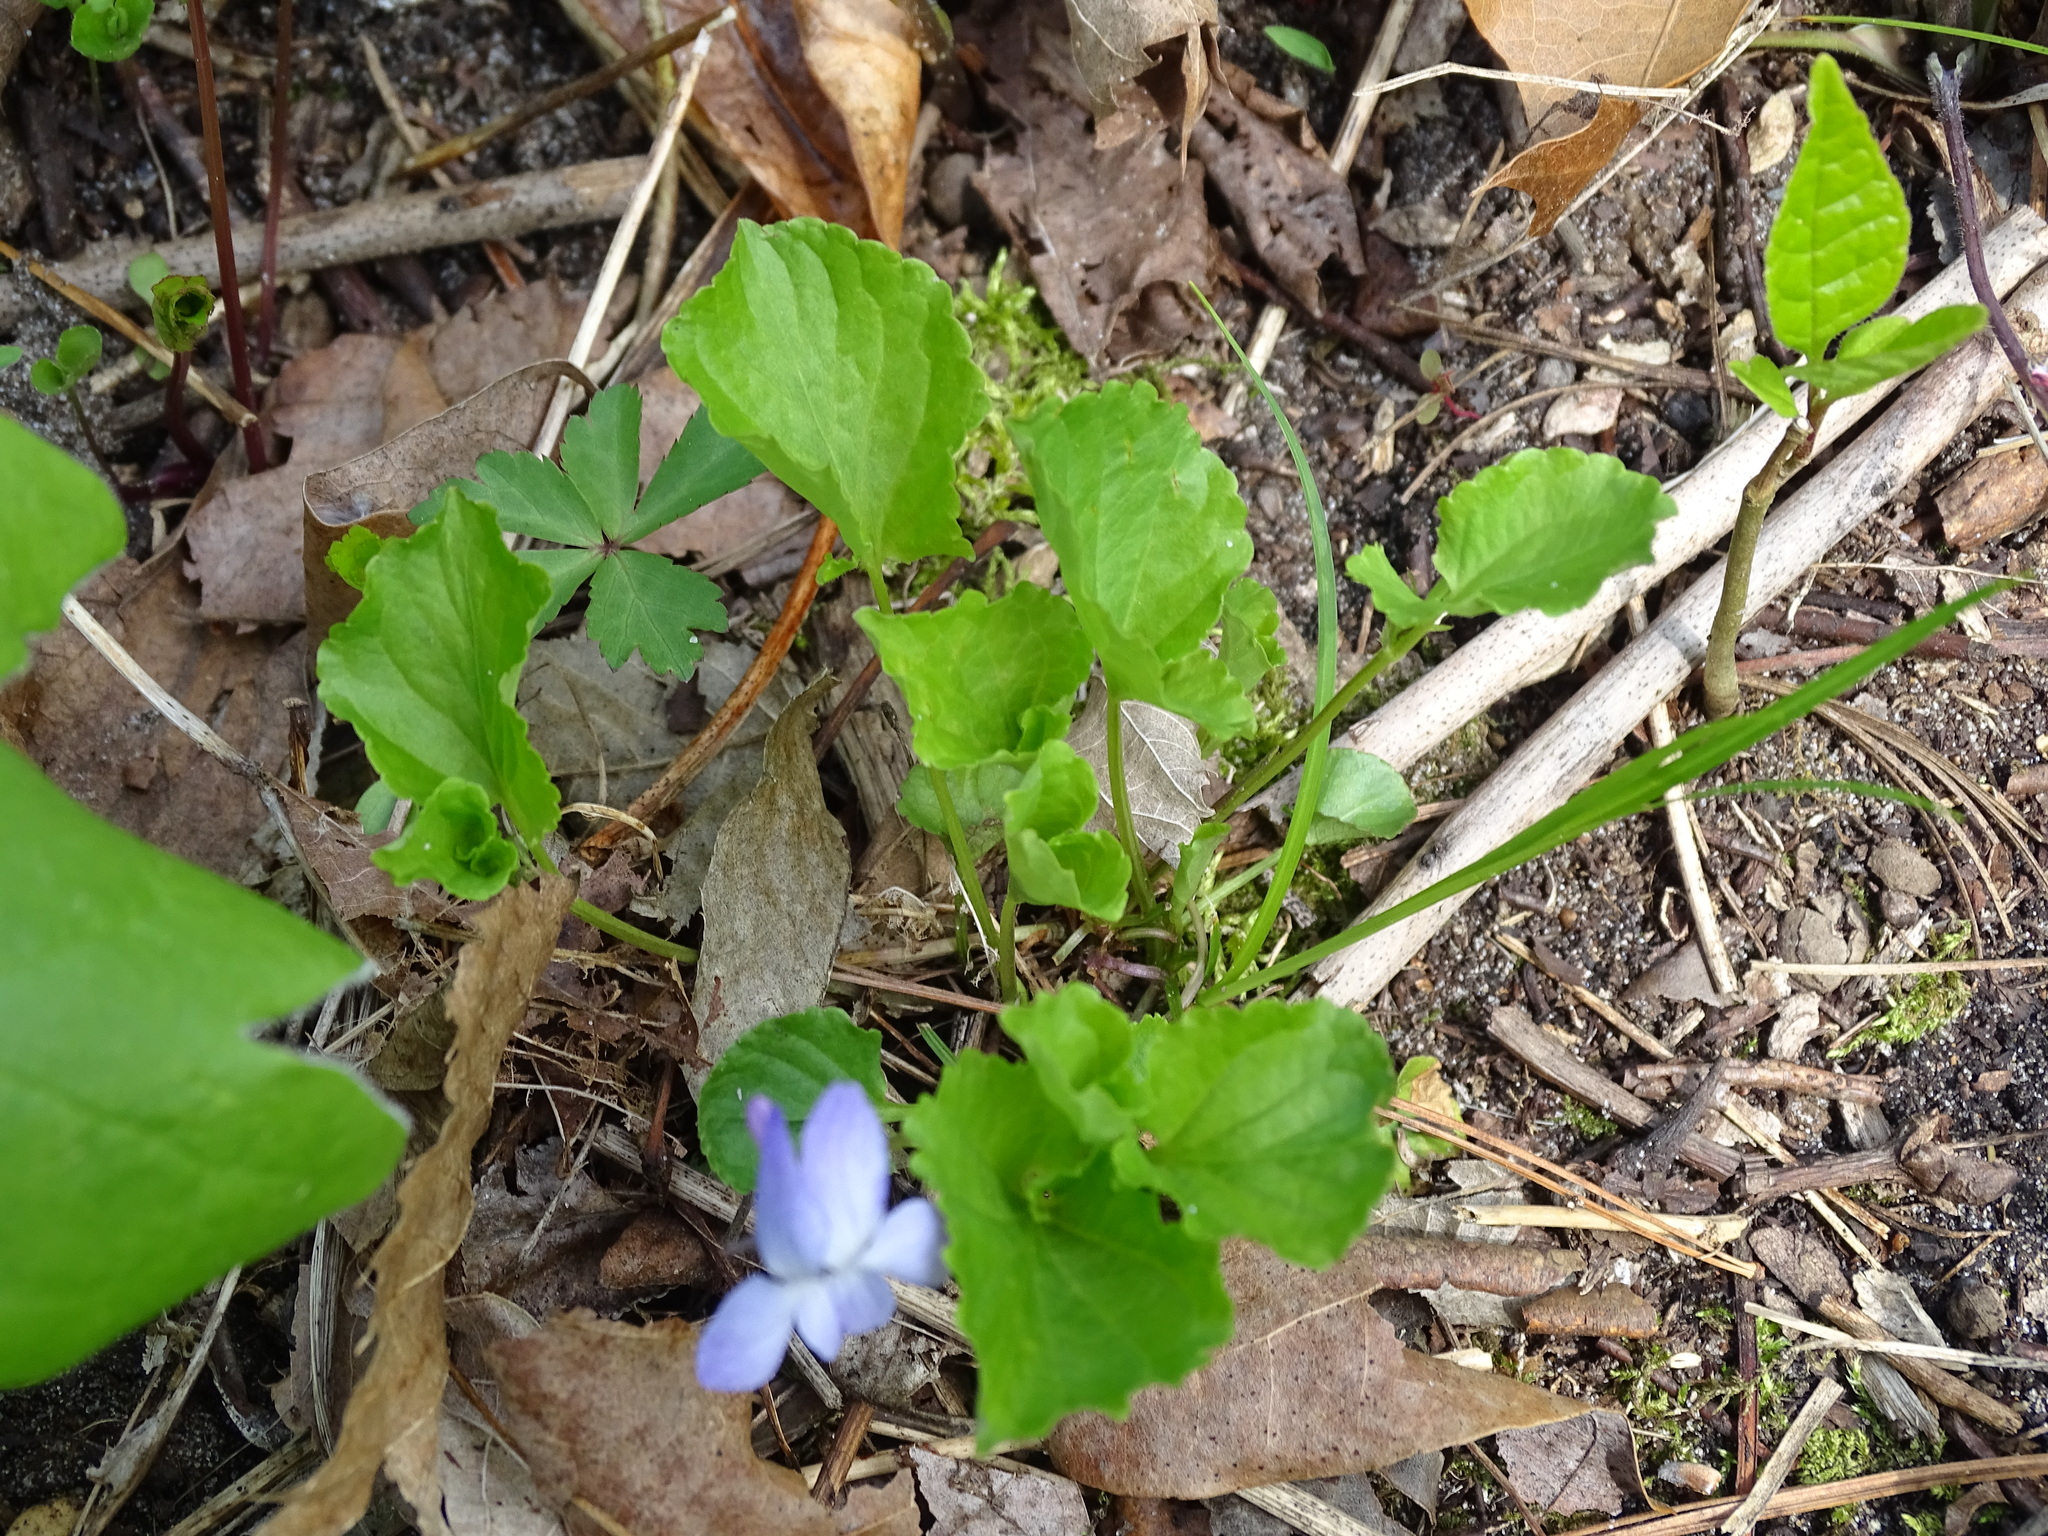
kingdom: Plantae
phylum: Tracheophyta
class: Magnoliopsida
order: Malpighiales
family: Violaceae
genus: Viola
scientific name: Viola labradorica
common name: Labrador violet
